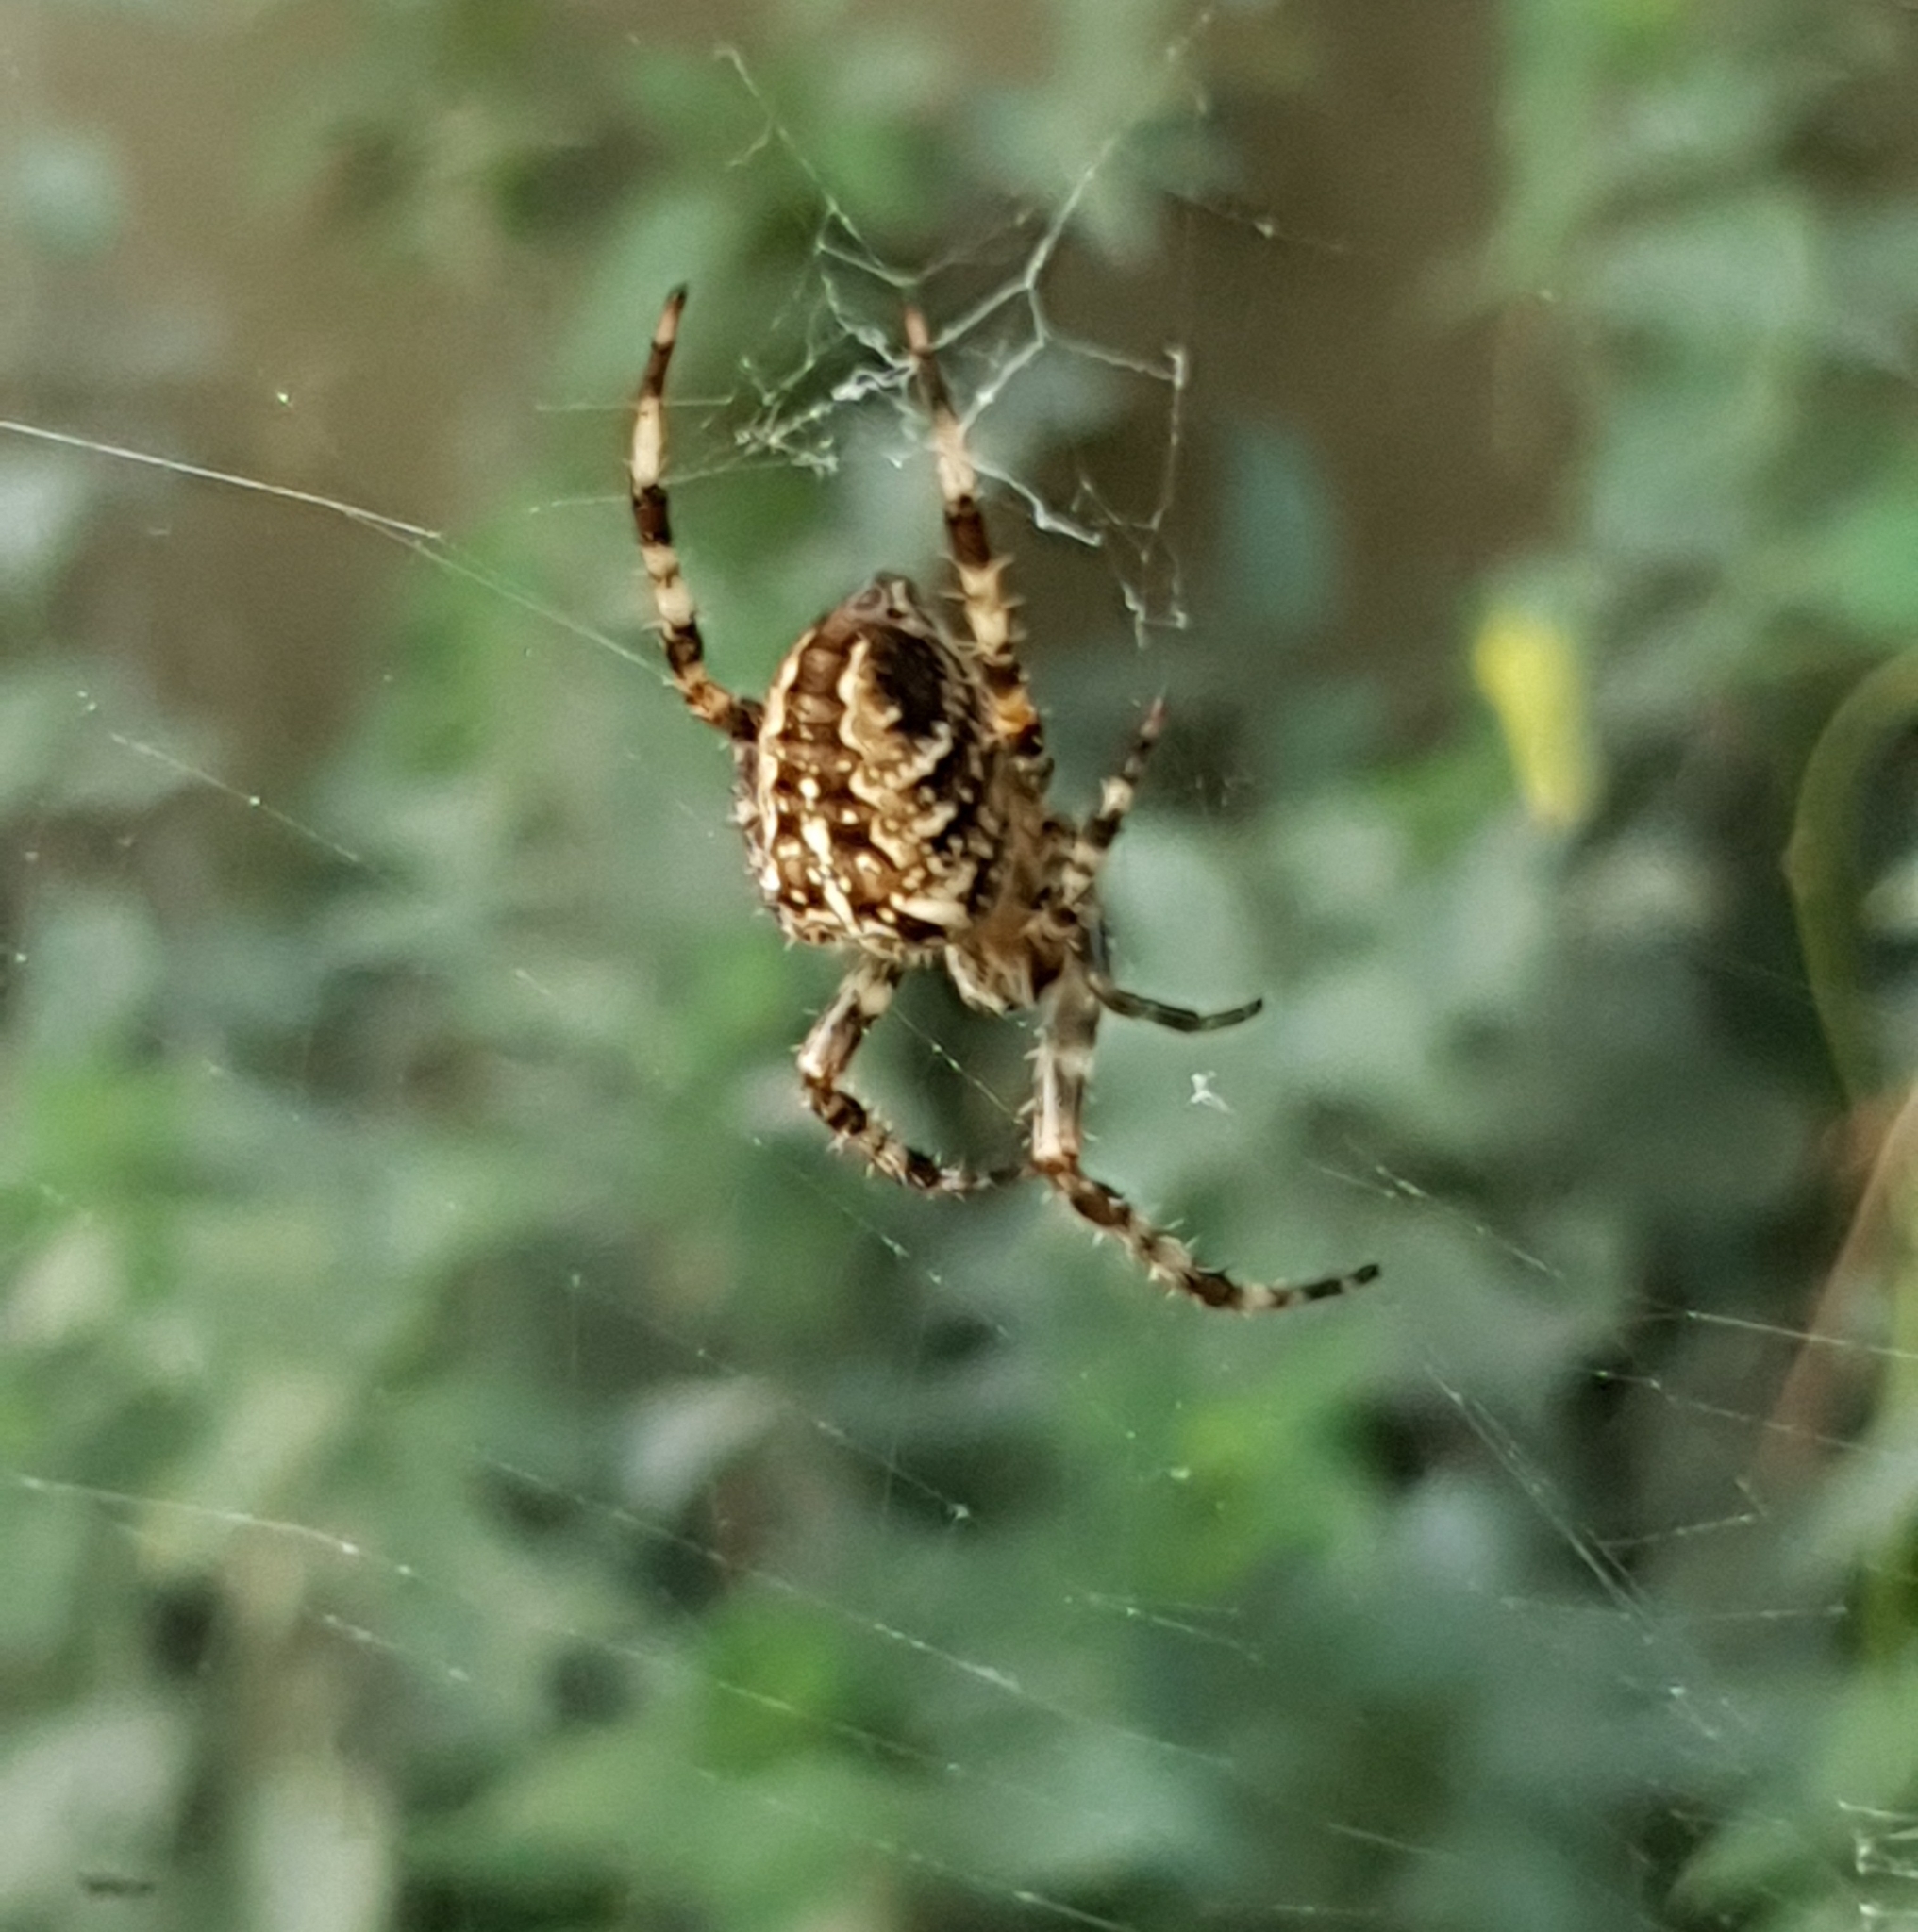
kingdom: Animalia
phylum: Arthropoda
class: Arachnida
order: Araneae
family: Araneidae
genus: Araneus
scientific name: Araneus diadematus
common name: Cross orbweaver
